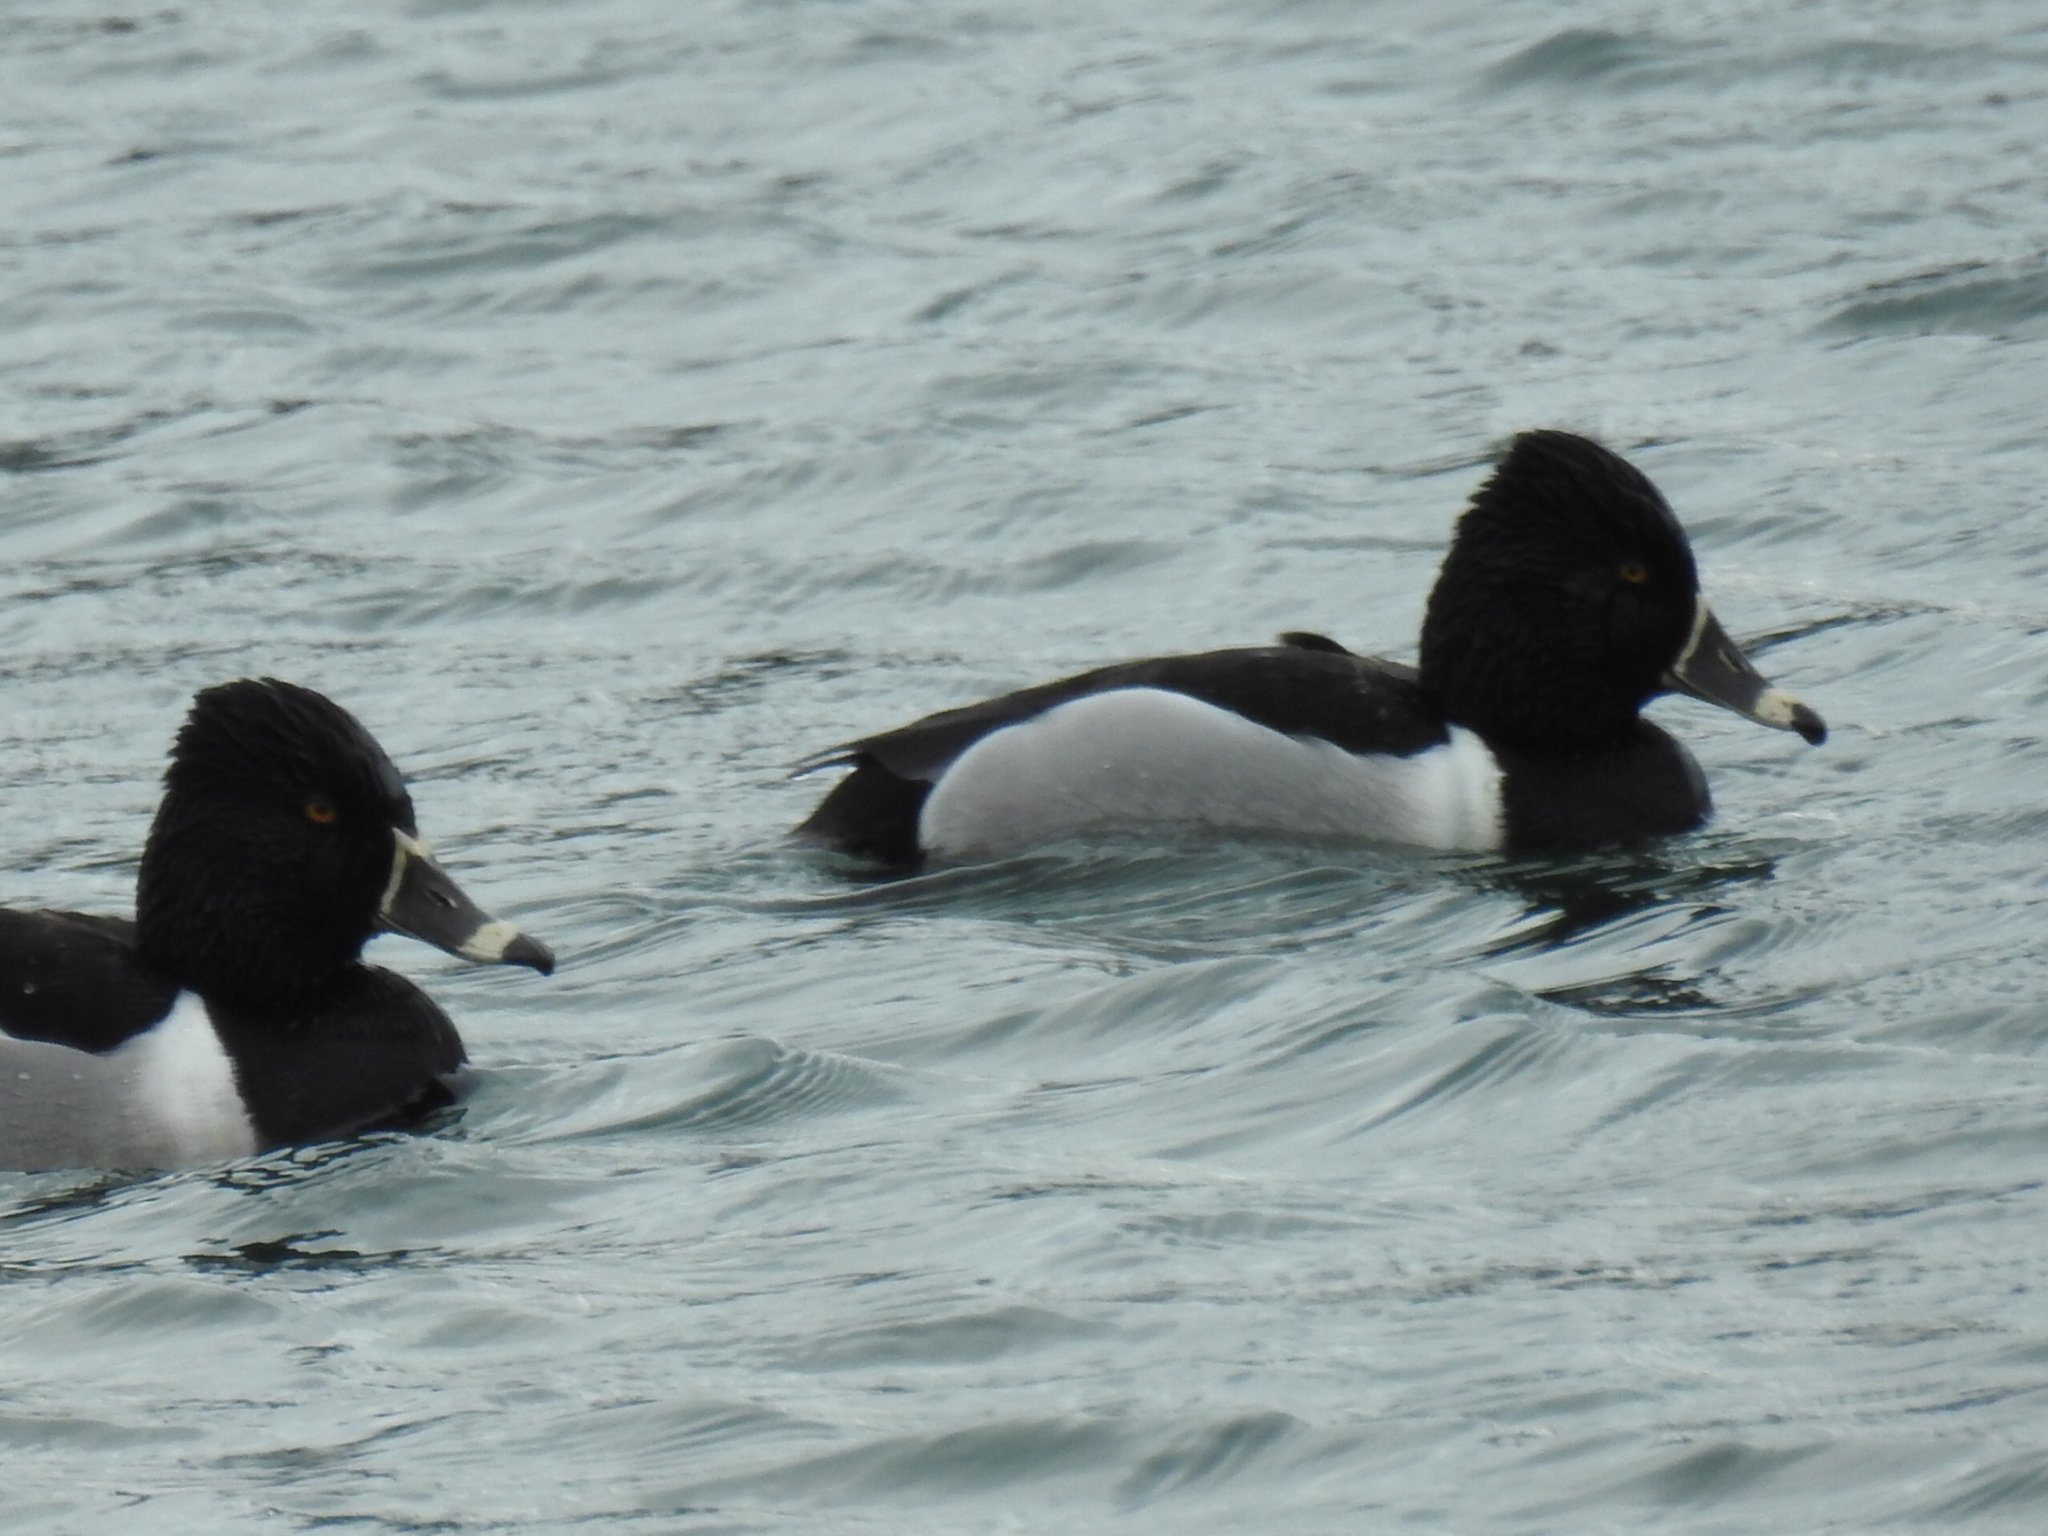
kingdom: Animalia
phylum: Chordata
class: Aves
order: Anseriformes
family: Anatidae
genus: Aythya
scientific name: Aythya collaris
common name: Ring-necked duck
